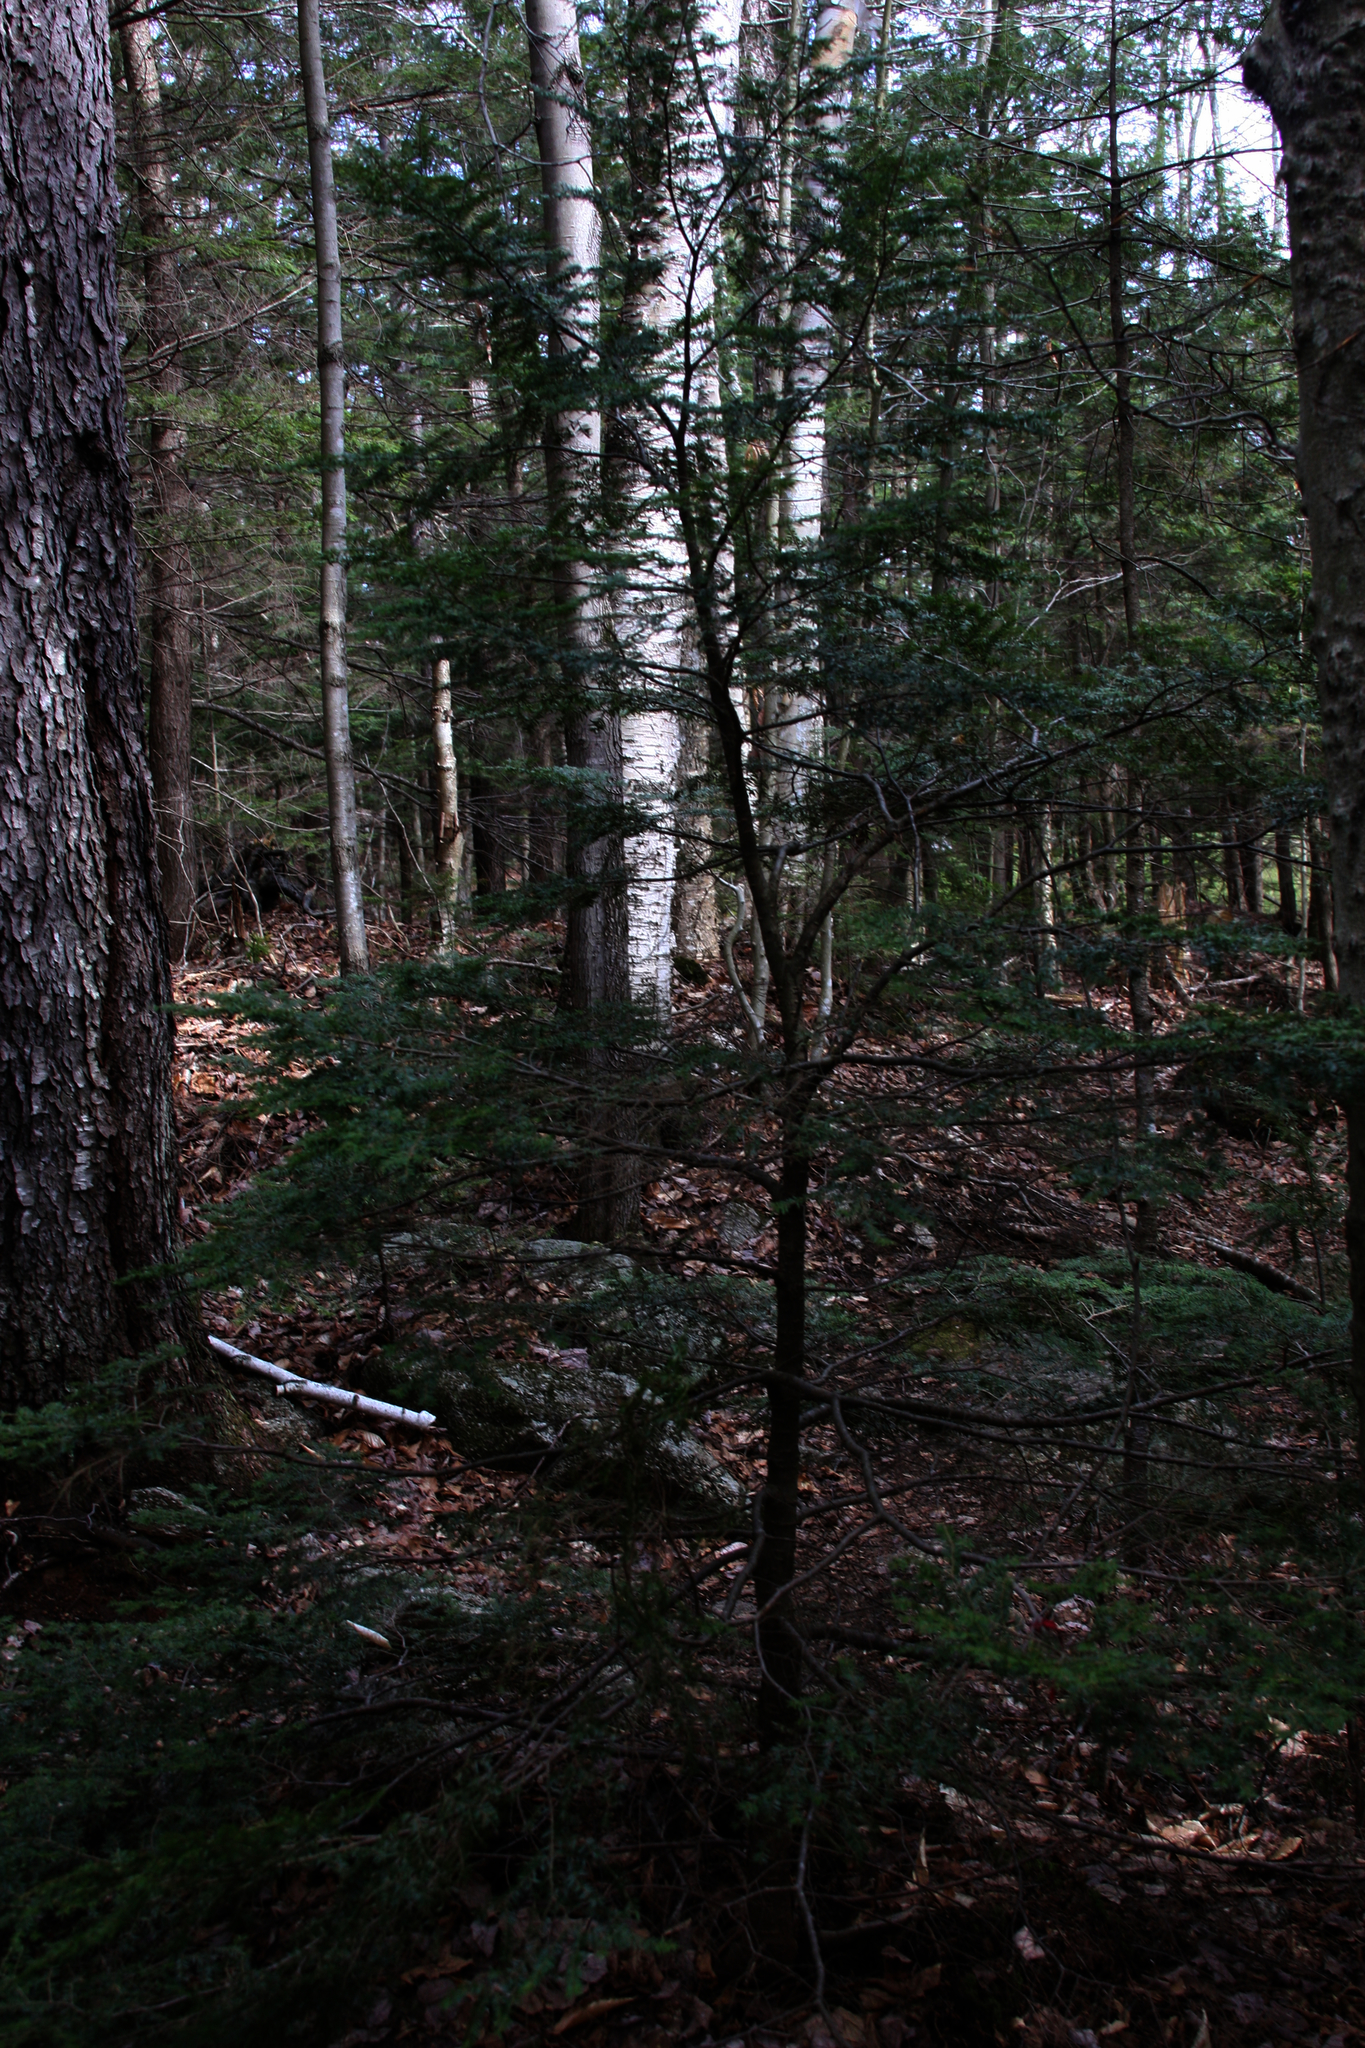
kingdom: Plantae
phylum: Tracheophyta
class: Pinopsida
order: Pinales
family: Pinaceae
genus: Tsuga
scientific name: Tsuga canadensis
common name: Eastern hemlock
